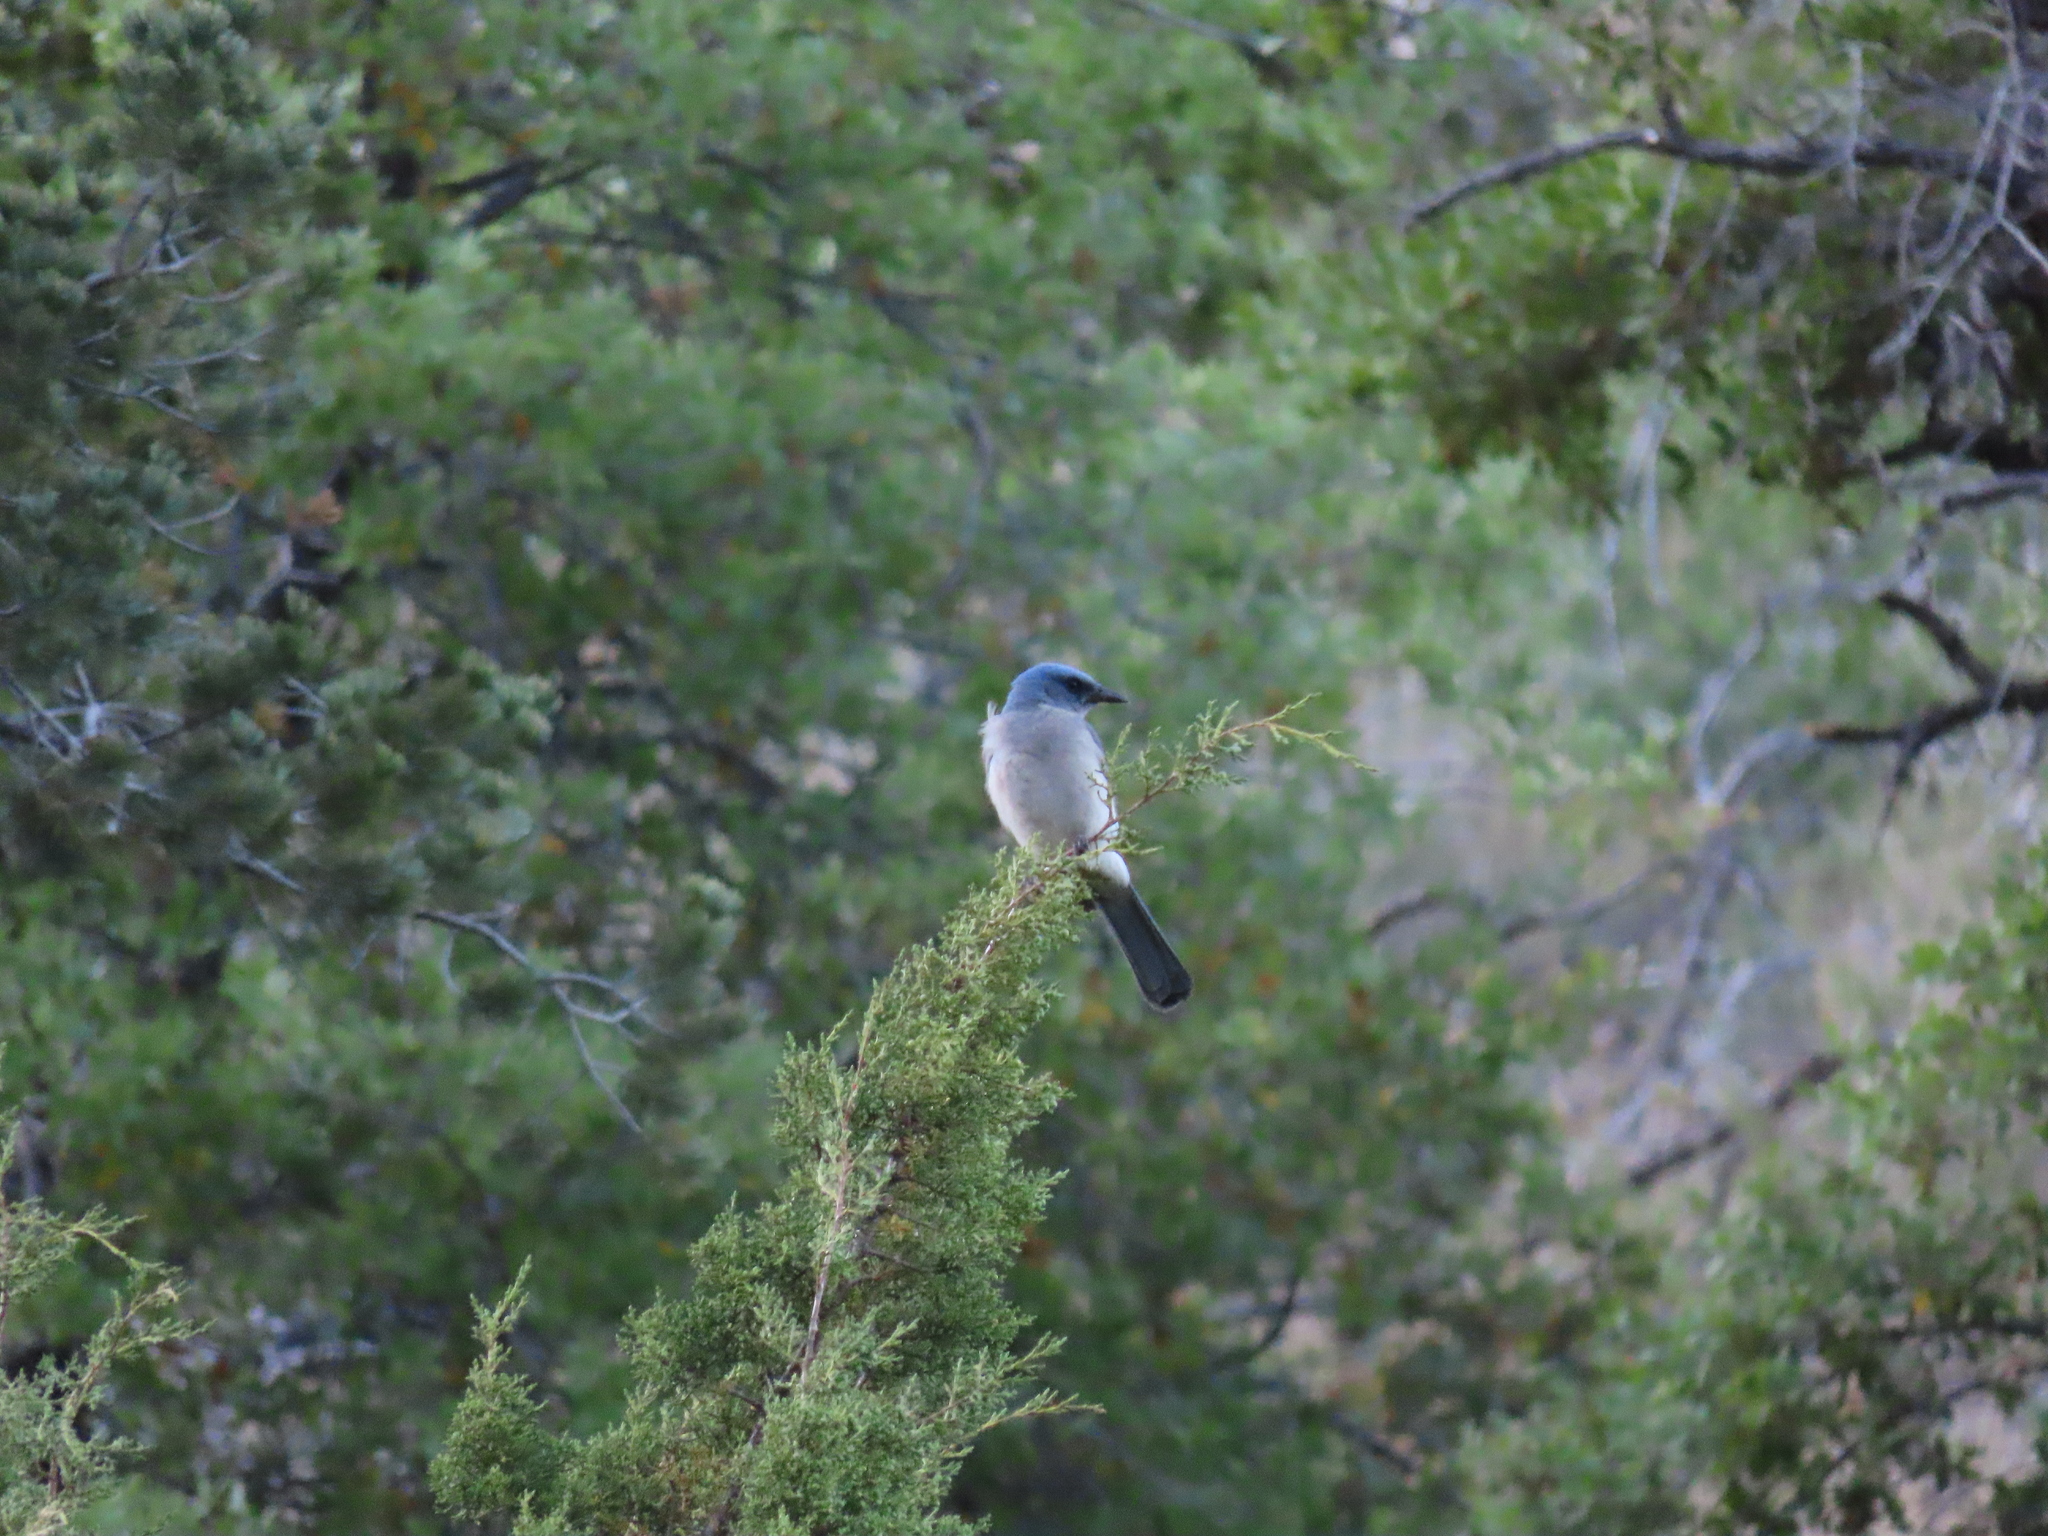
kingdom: Animalia
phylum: Chordata
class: Aves
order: Passeriformes
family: Corvidae
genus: Aphelocoma
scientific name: Aphelocoma wollweberi
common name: Mexican jay
